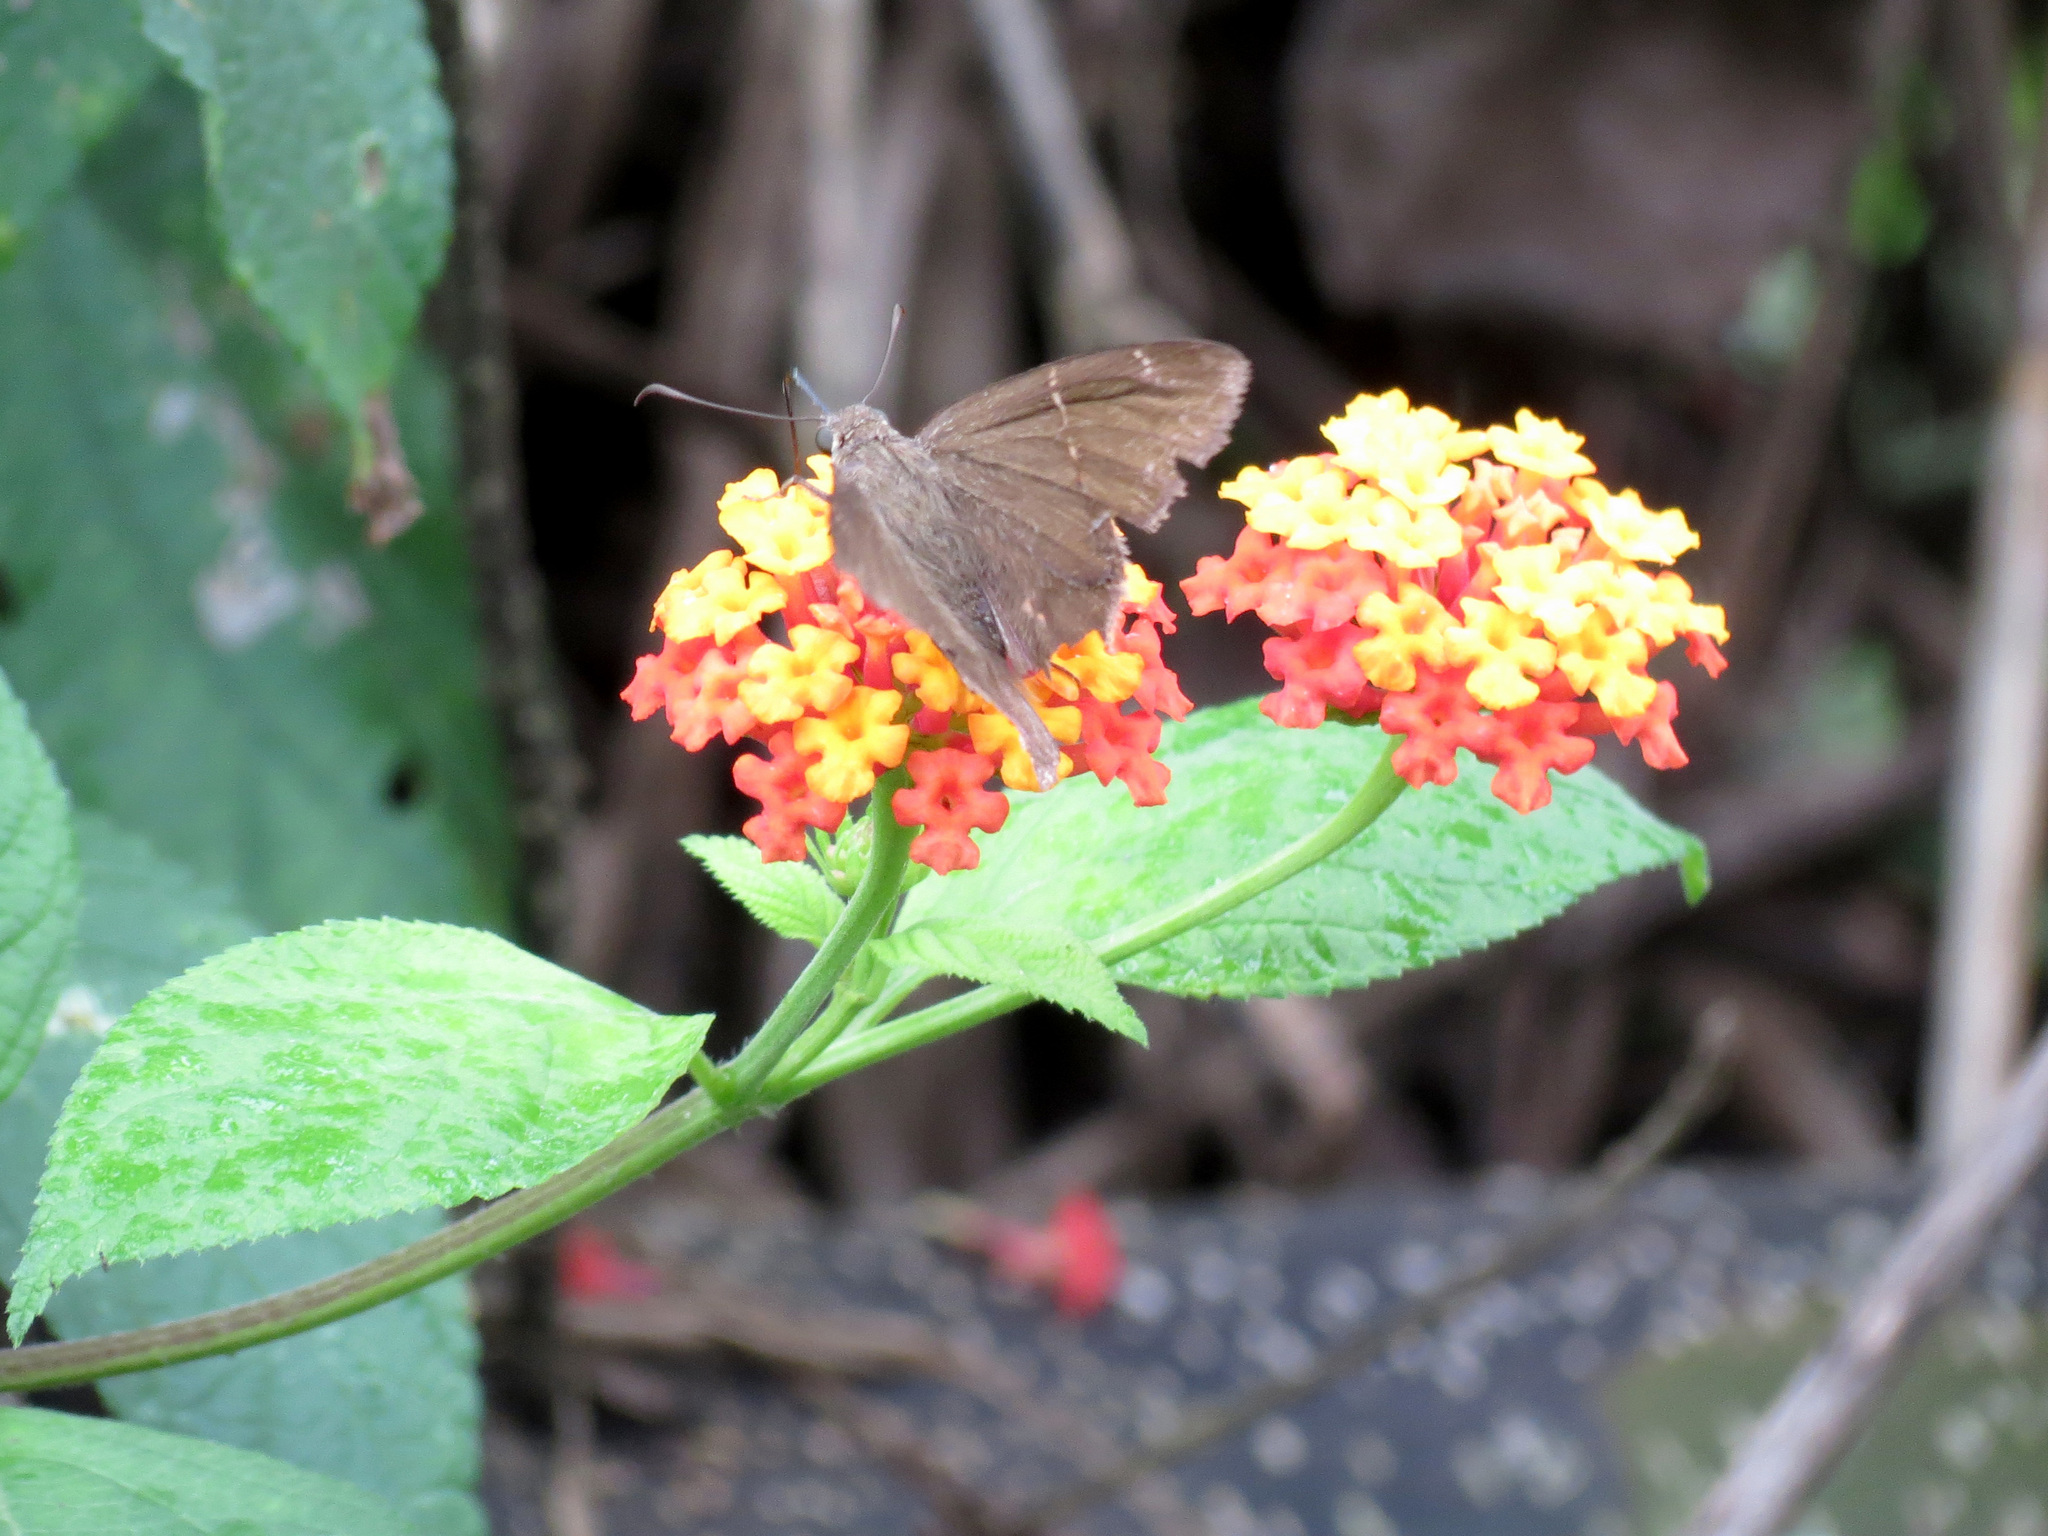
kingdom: Animalia
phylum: Arthropoda
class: Insecta
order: Lepidoptera
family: Hesperiidae
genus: Urbanus
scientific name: Urbanus procne
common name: Brown longtail
